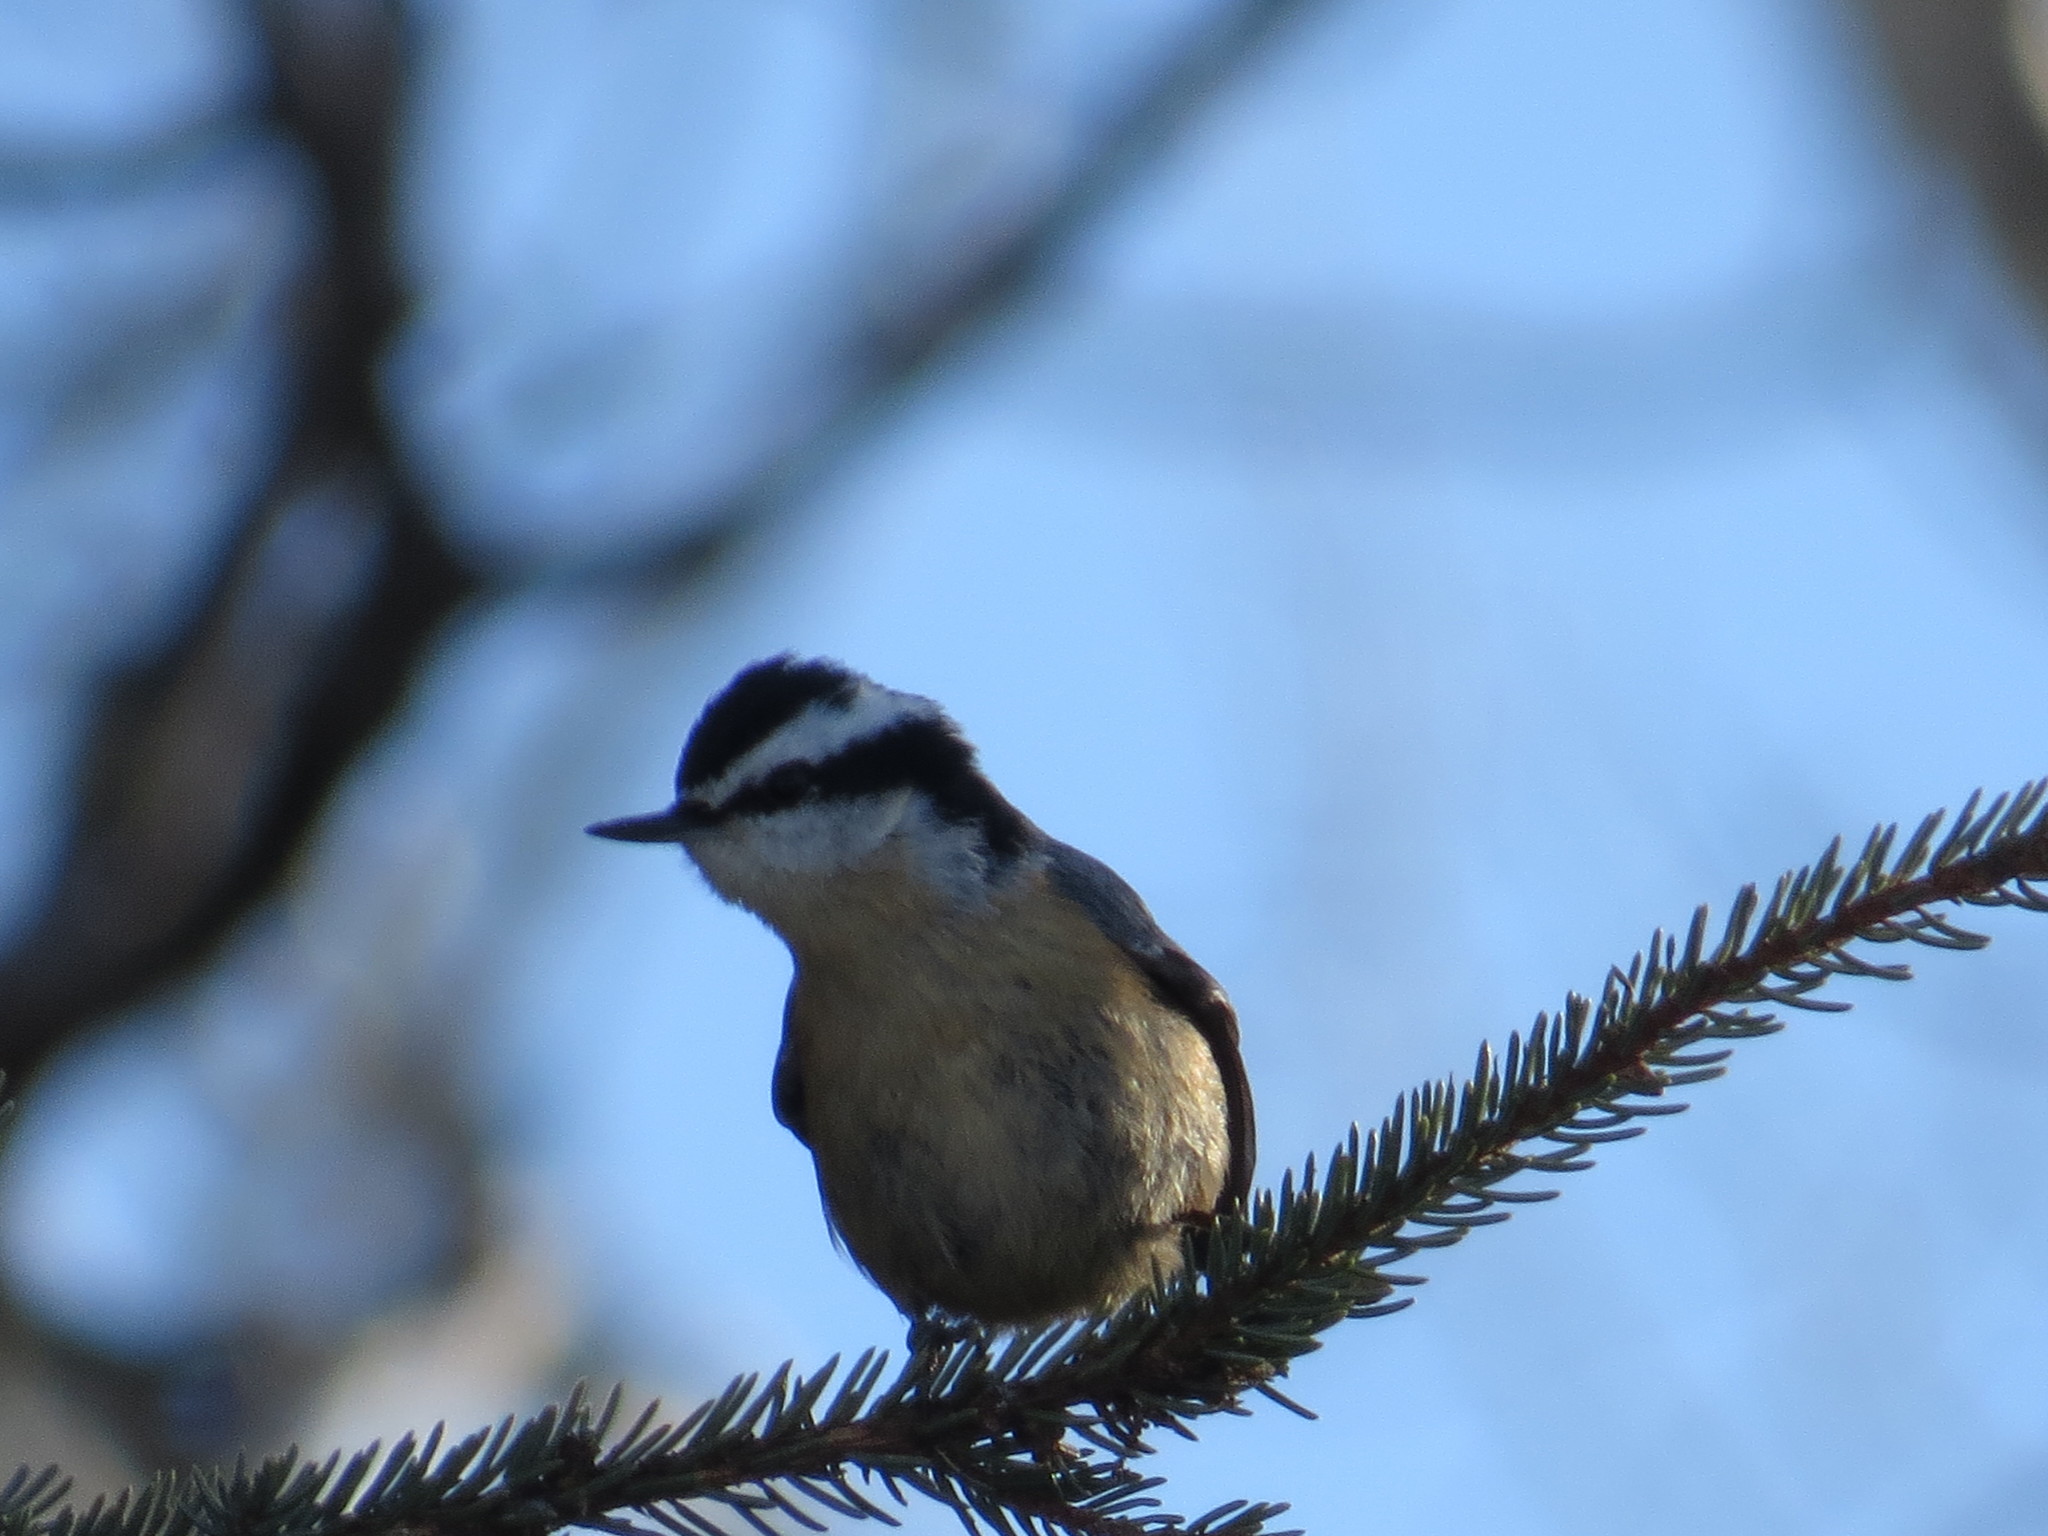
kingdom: Animalia
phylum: Chordata
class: Aves
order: Passeriformes
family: Sittidae
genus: Sitta
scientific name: Sitta canadensis
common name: Red-breasted nuthatch
